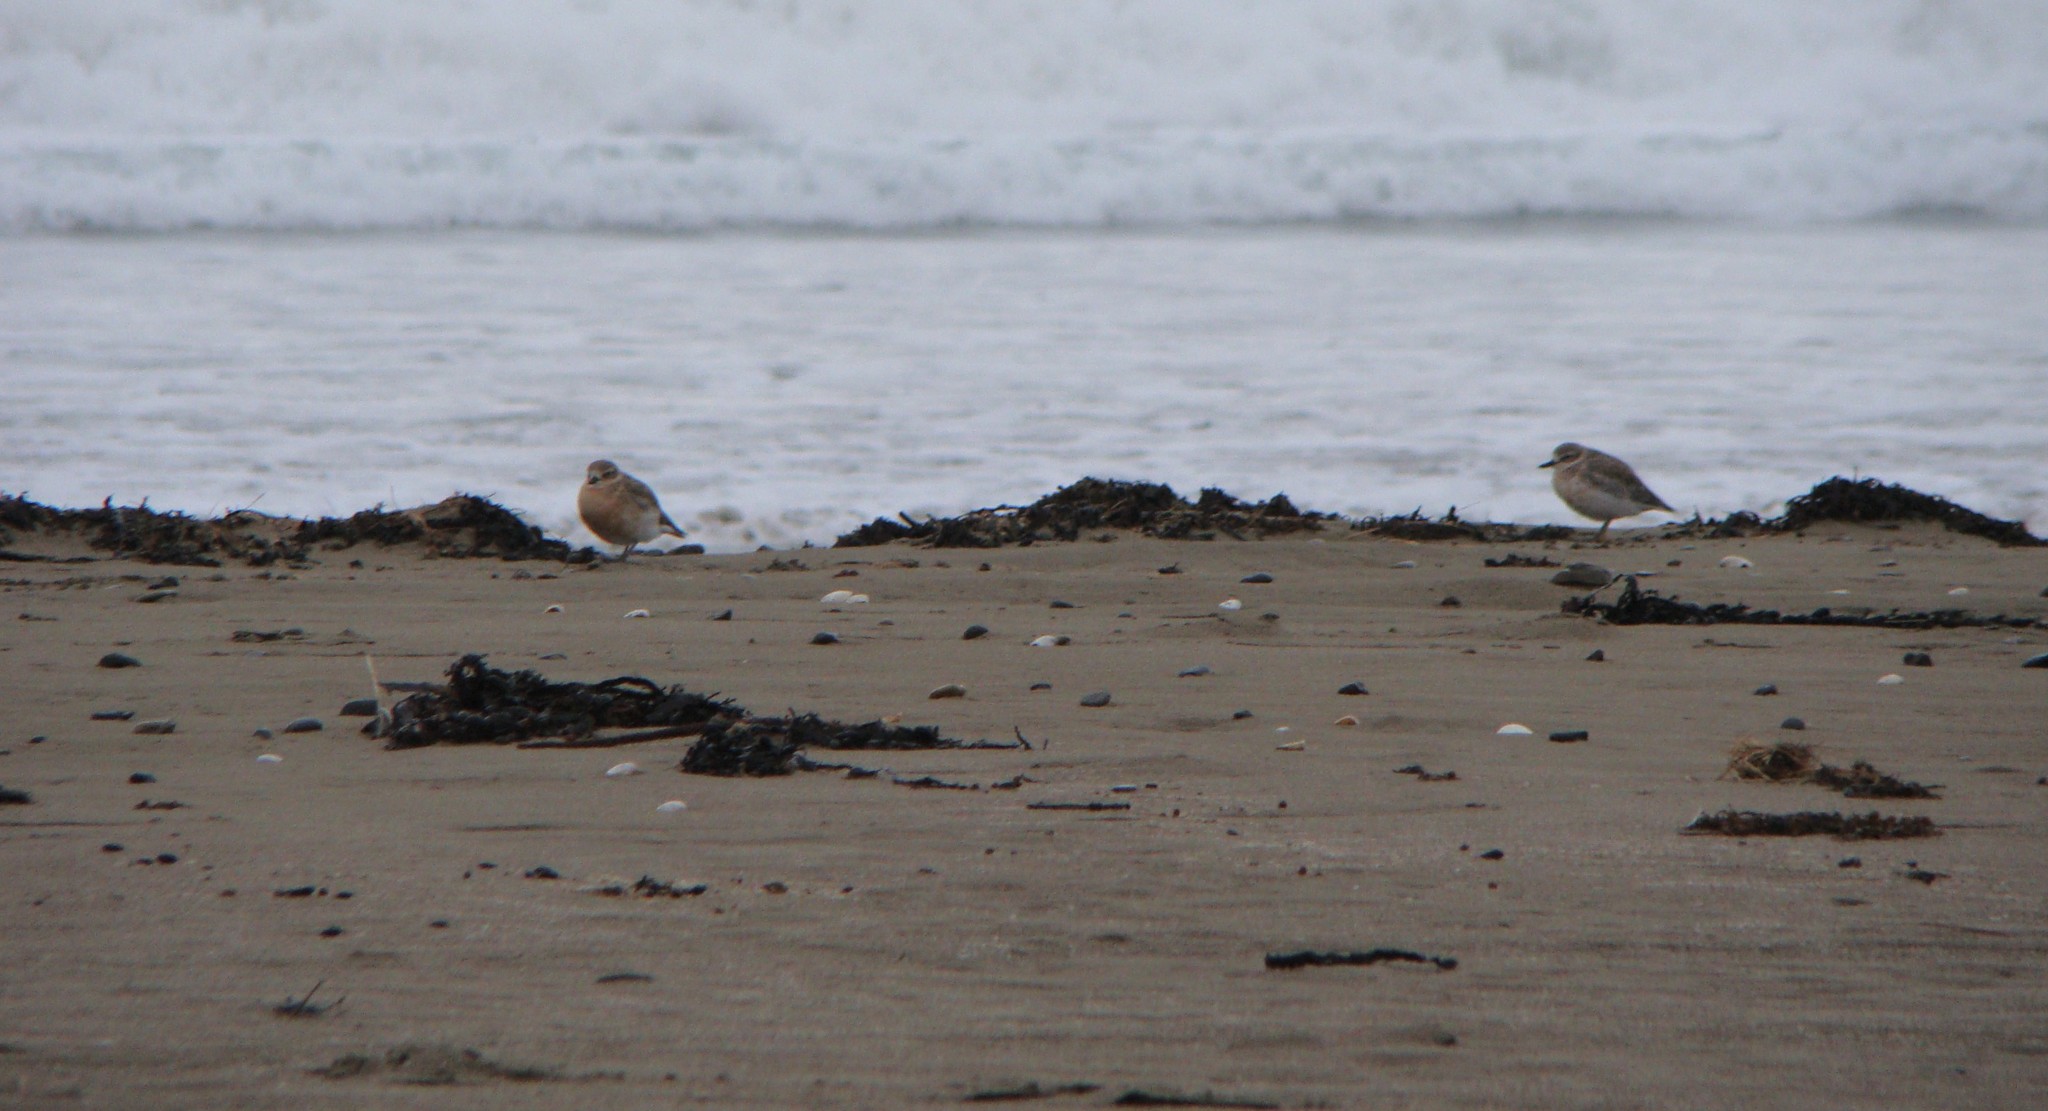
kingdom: Animalia
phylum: Chordata
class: Aves
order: Charadriiformes
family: Charadriidae
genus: Anarhynchus
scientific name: Anarhynchus
